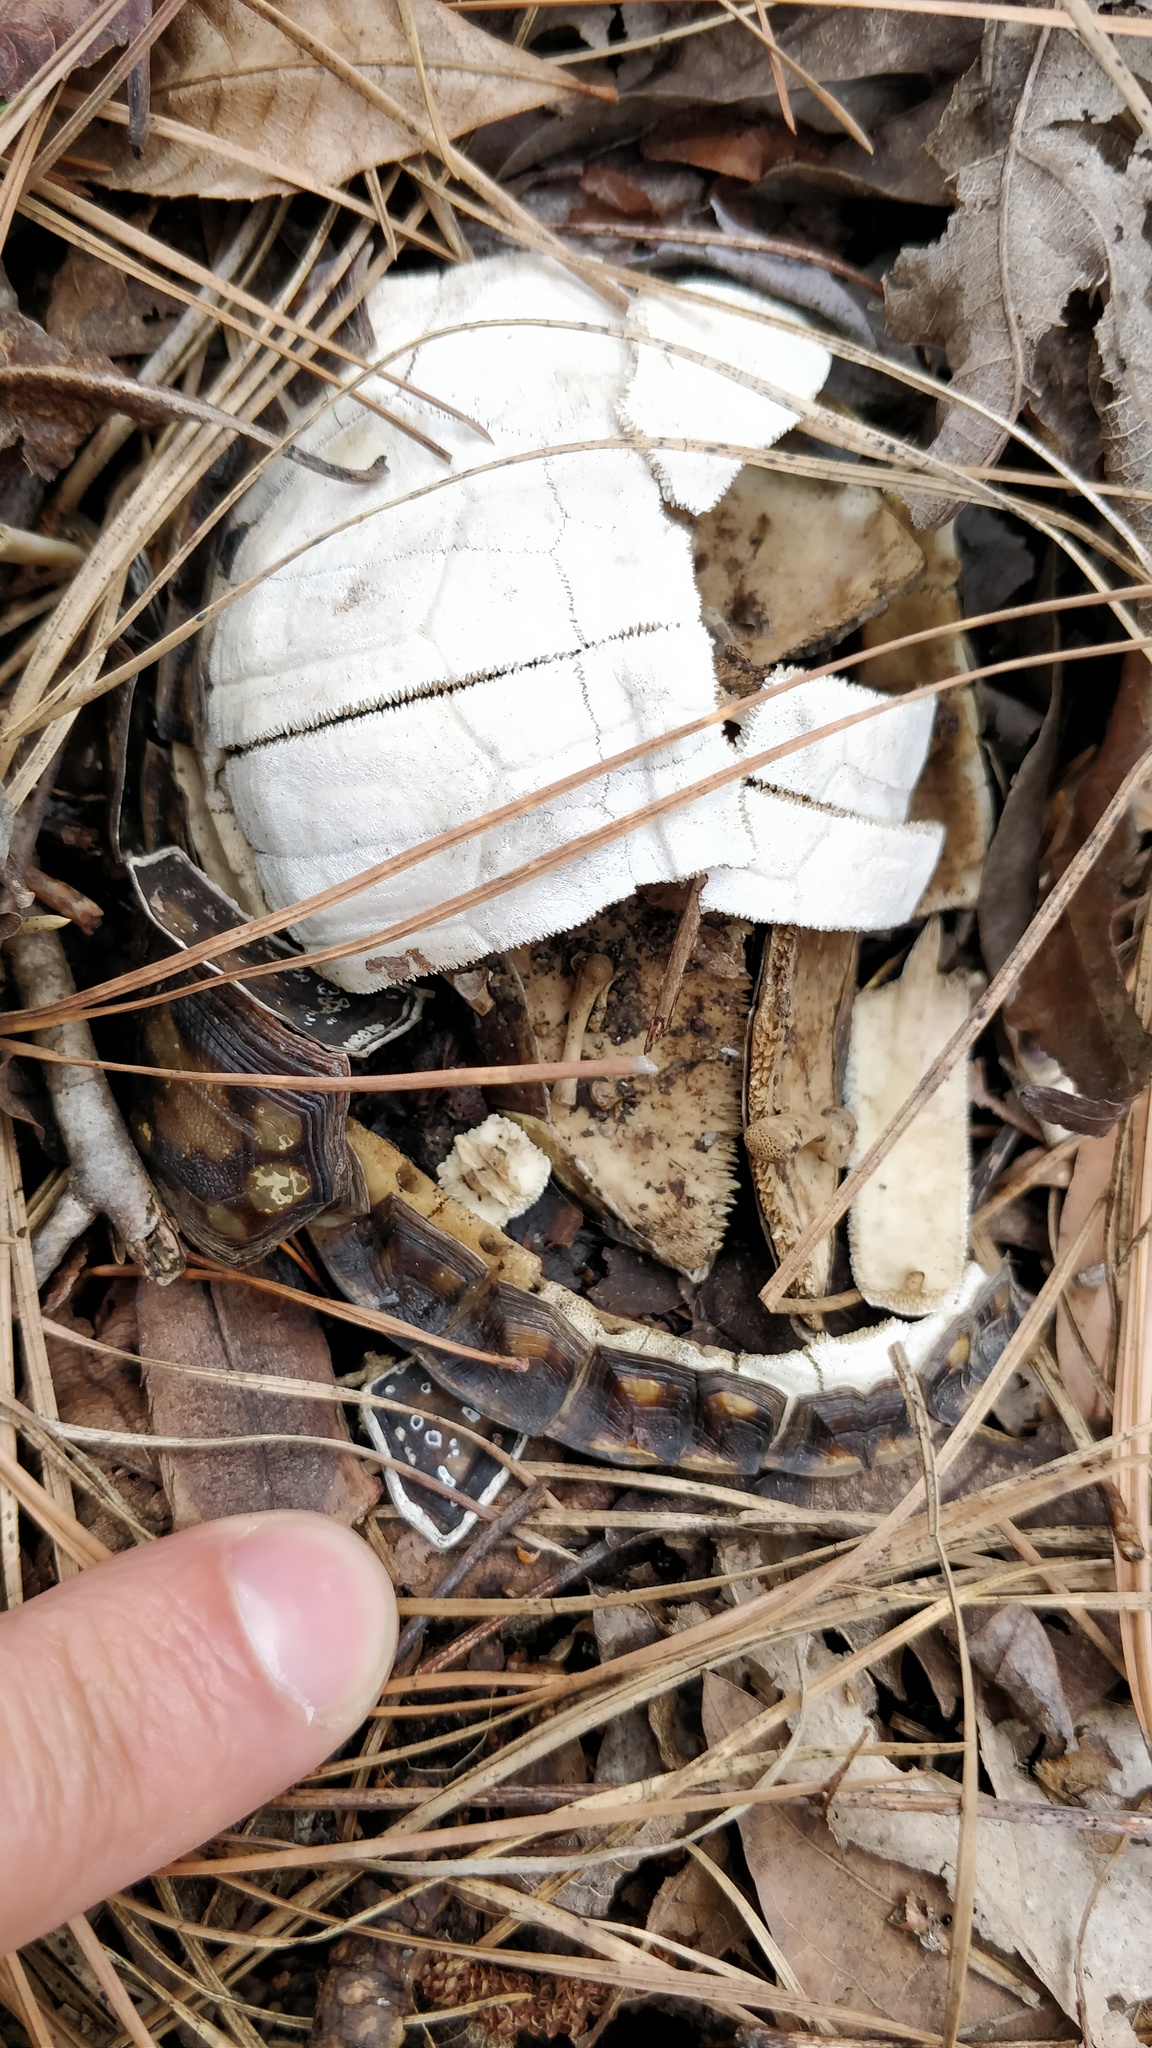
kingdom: Animalia
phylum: Chordata
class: Testudines
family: Emydidae
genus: Terrapene
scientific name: Terrapene carolina
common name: Common box turtle
